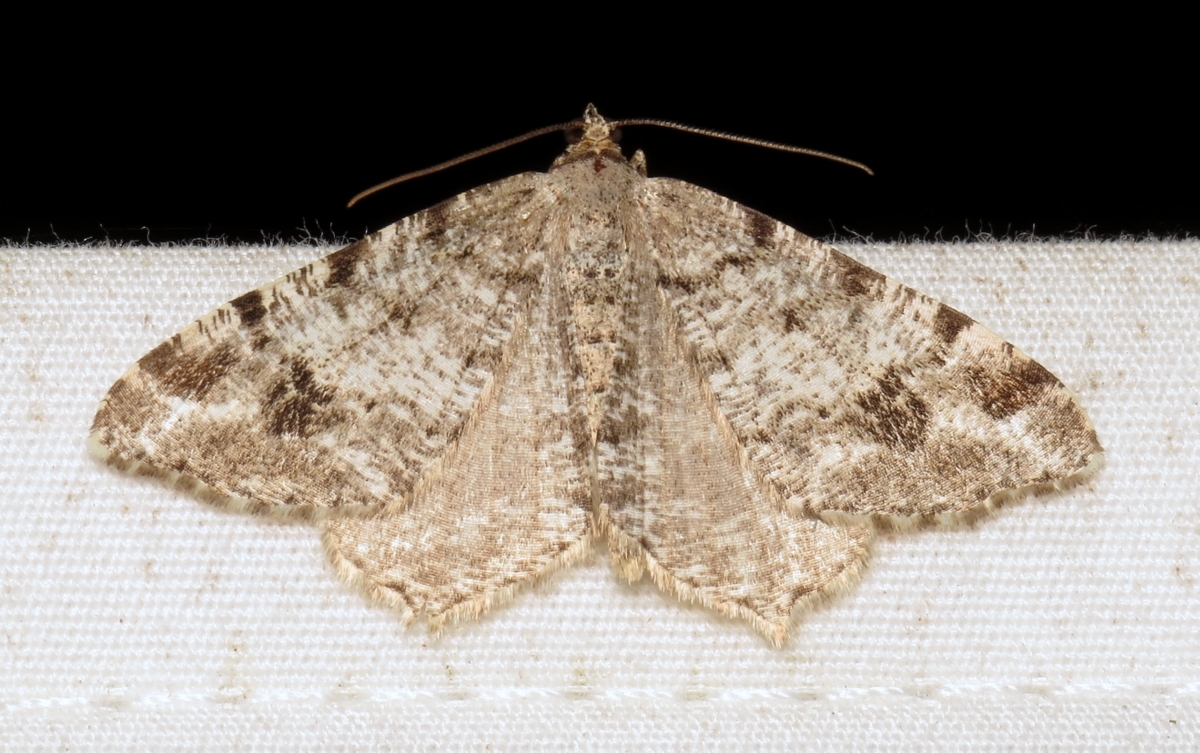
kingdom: Animalia
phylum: Arthropoda
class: Insecta
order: Lepidoptera
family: Geometridae
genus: Macaria
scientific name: Macaria signaria
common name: Dusky peacock
